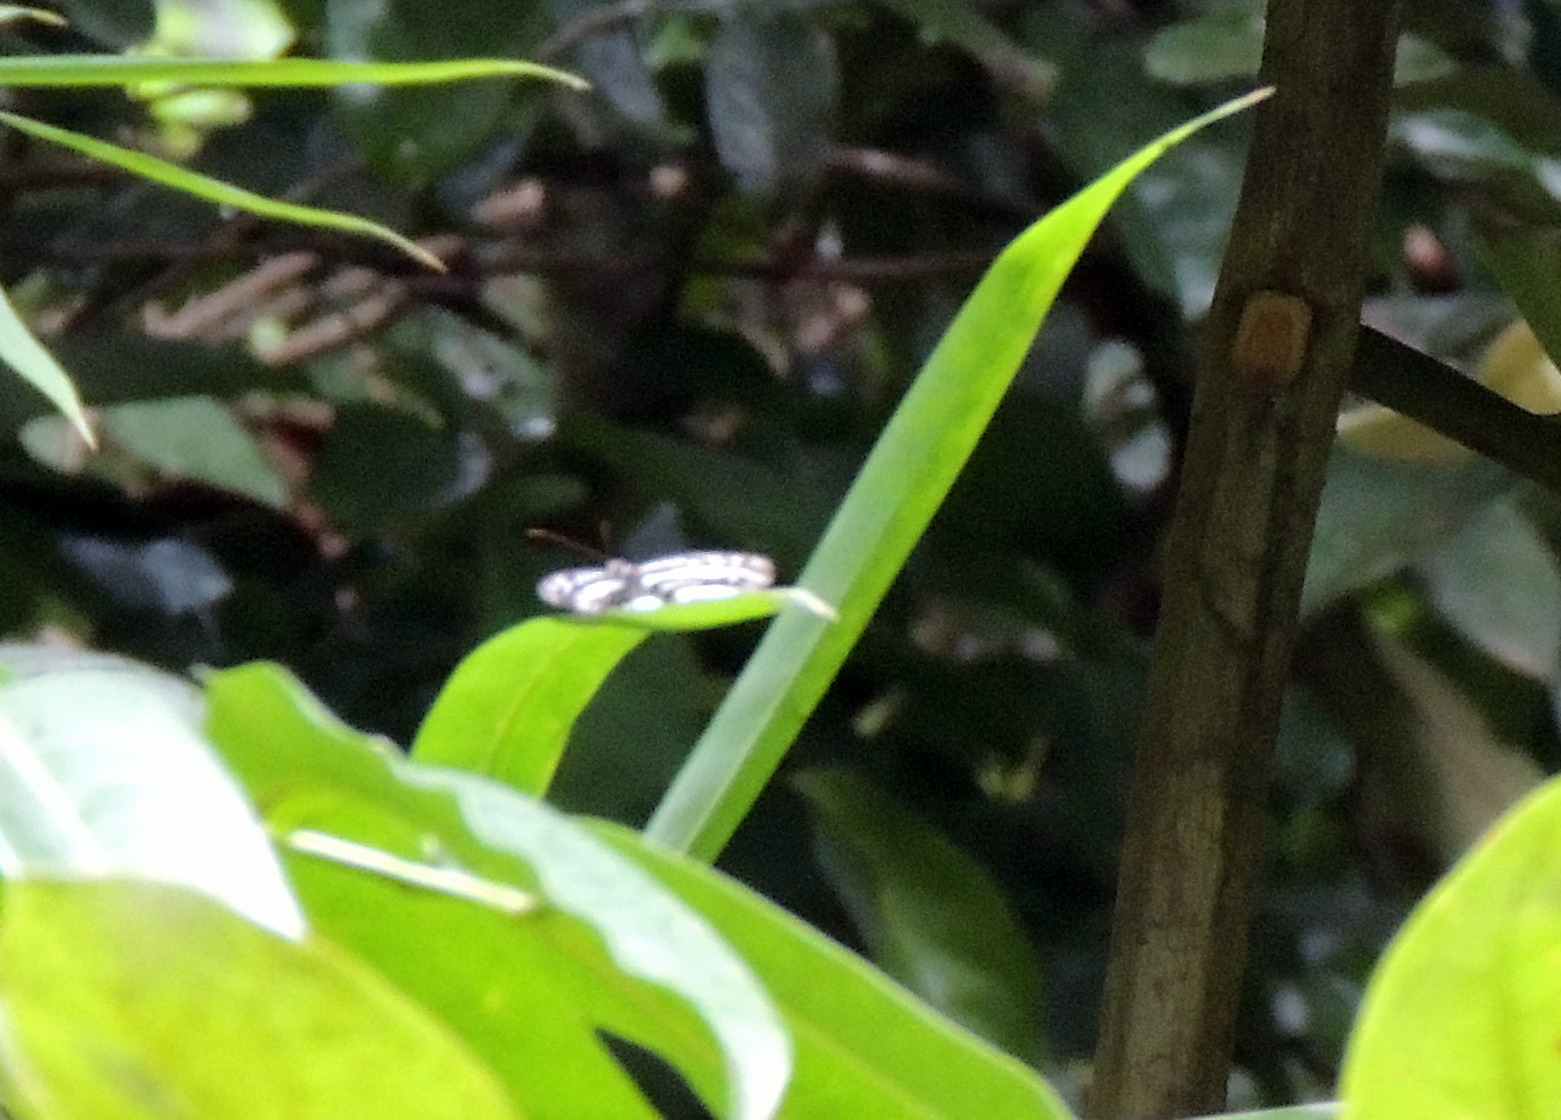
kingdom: Animalia
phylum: Arthropoda
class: Insecta
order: Lepidoptera
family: Nymphalidae
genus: Pseudoneptis
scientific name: Pseudoneptis bugandensis
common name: Blue sailer
